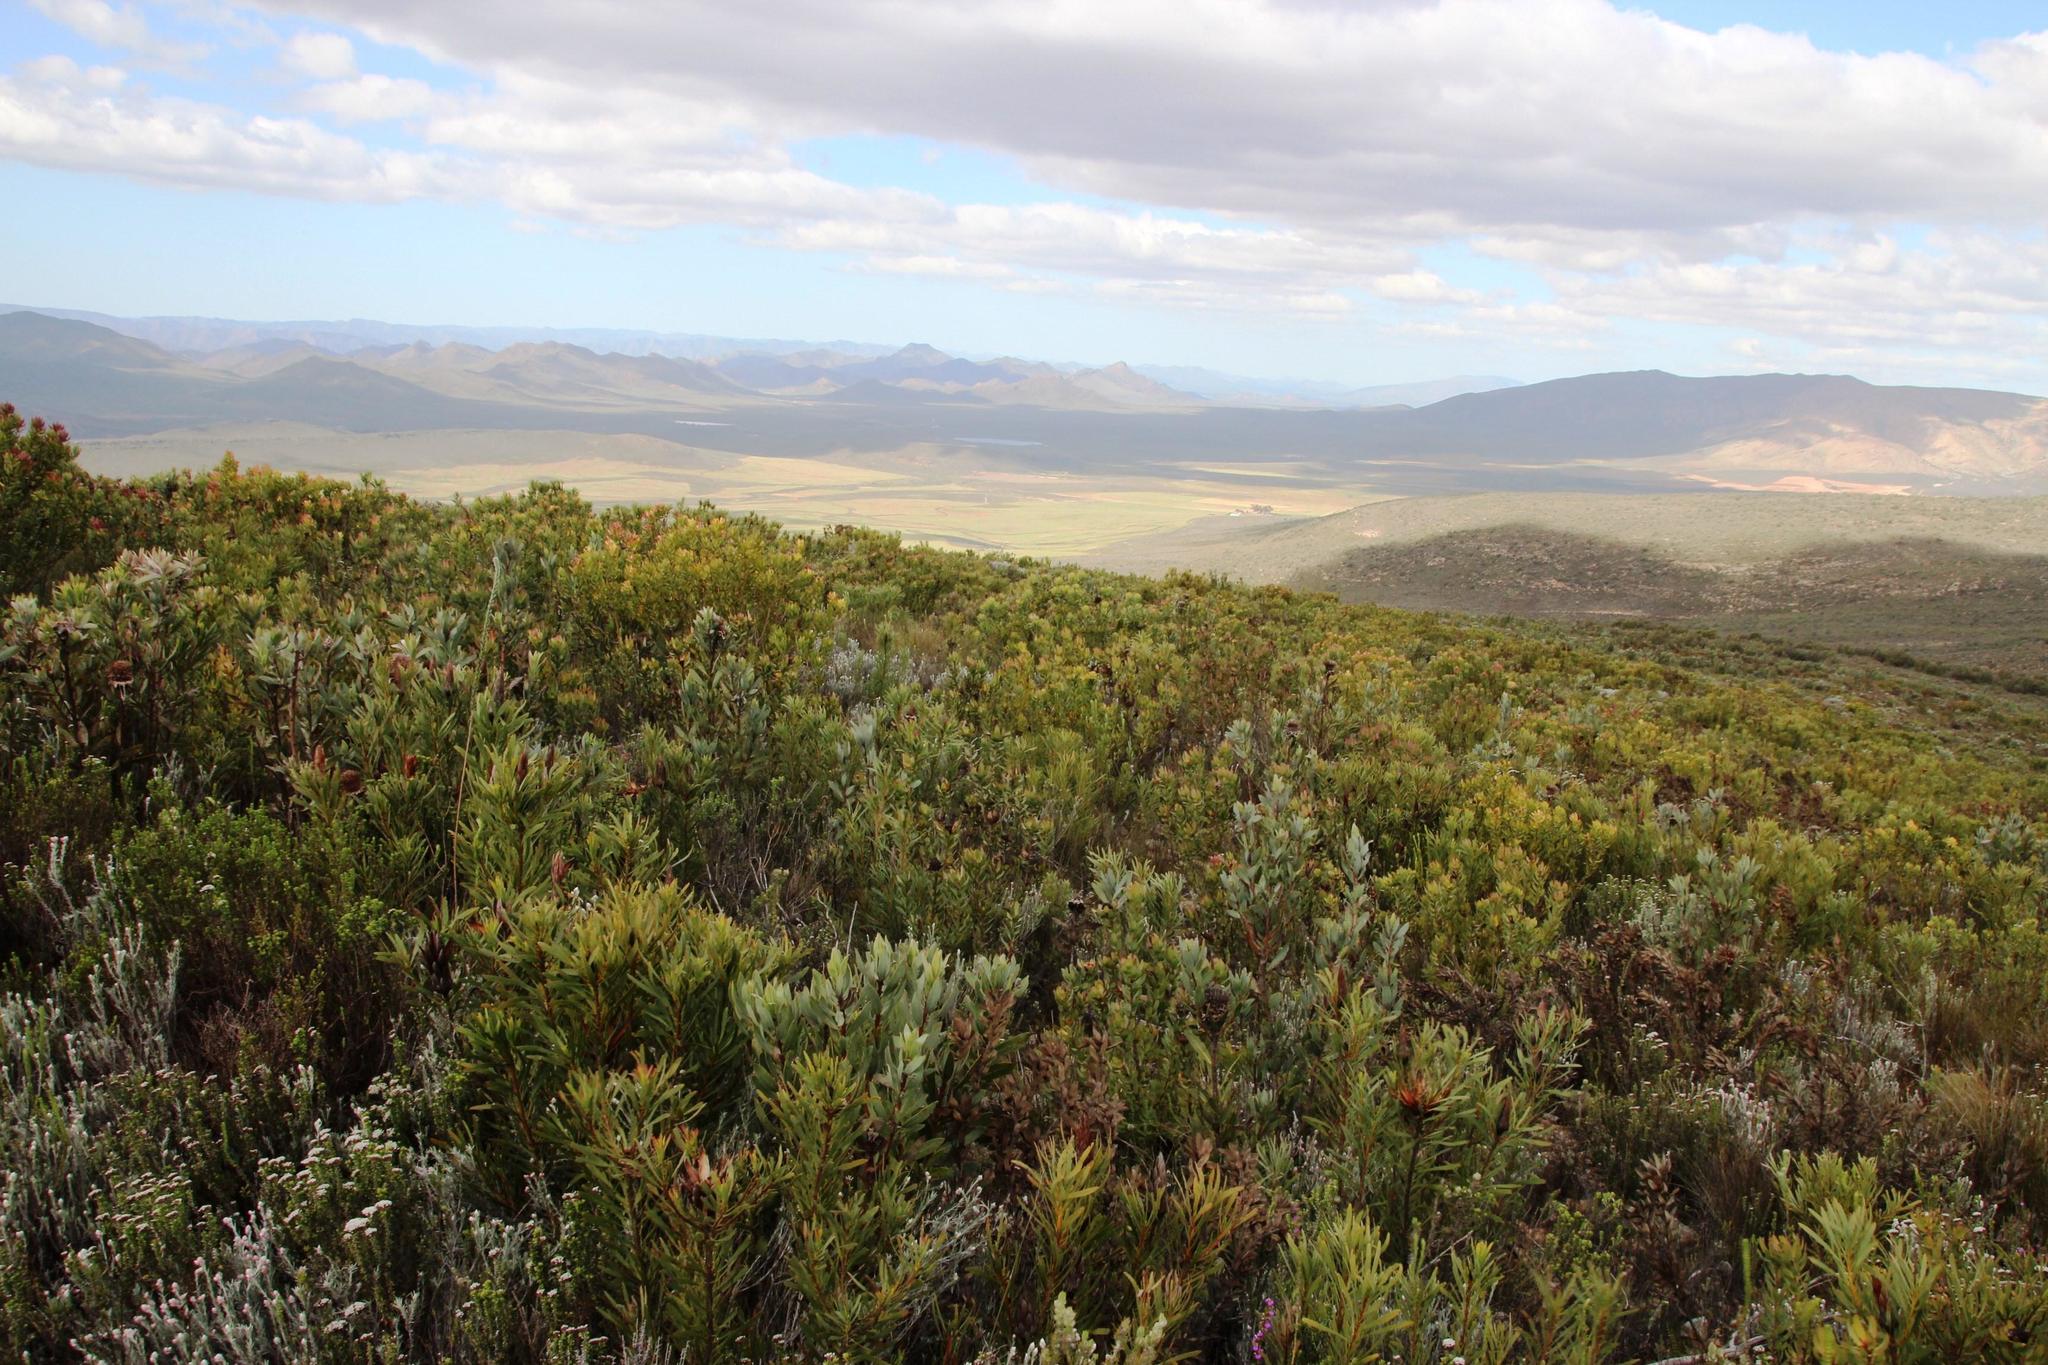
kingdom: Plantae
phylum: Tracheophyta
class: Magnoliopsida
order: Proteales
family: Proteaceae
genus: Protea
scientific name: Protea repens
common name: Sugarbush
